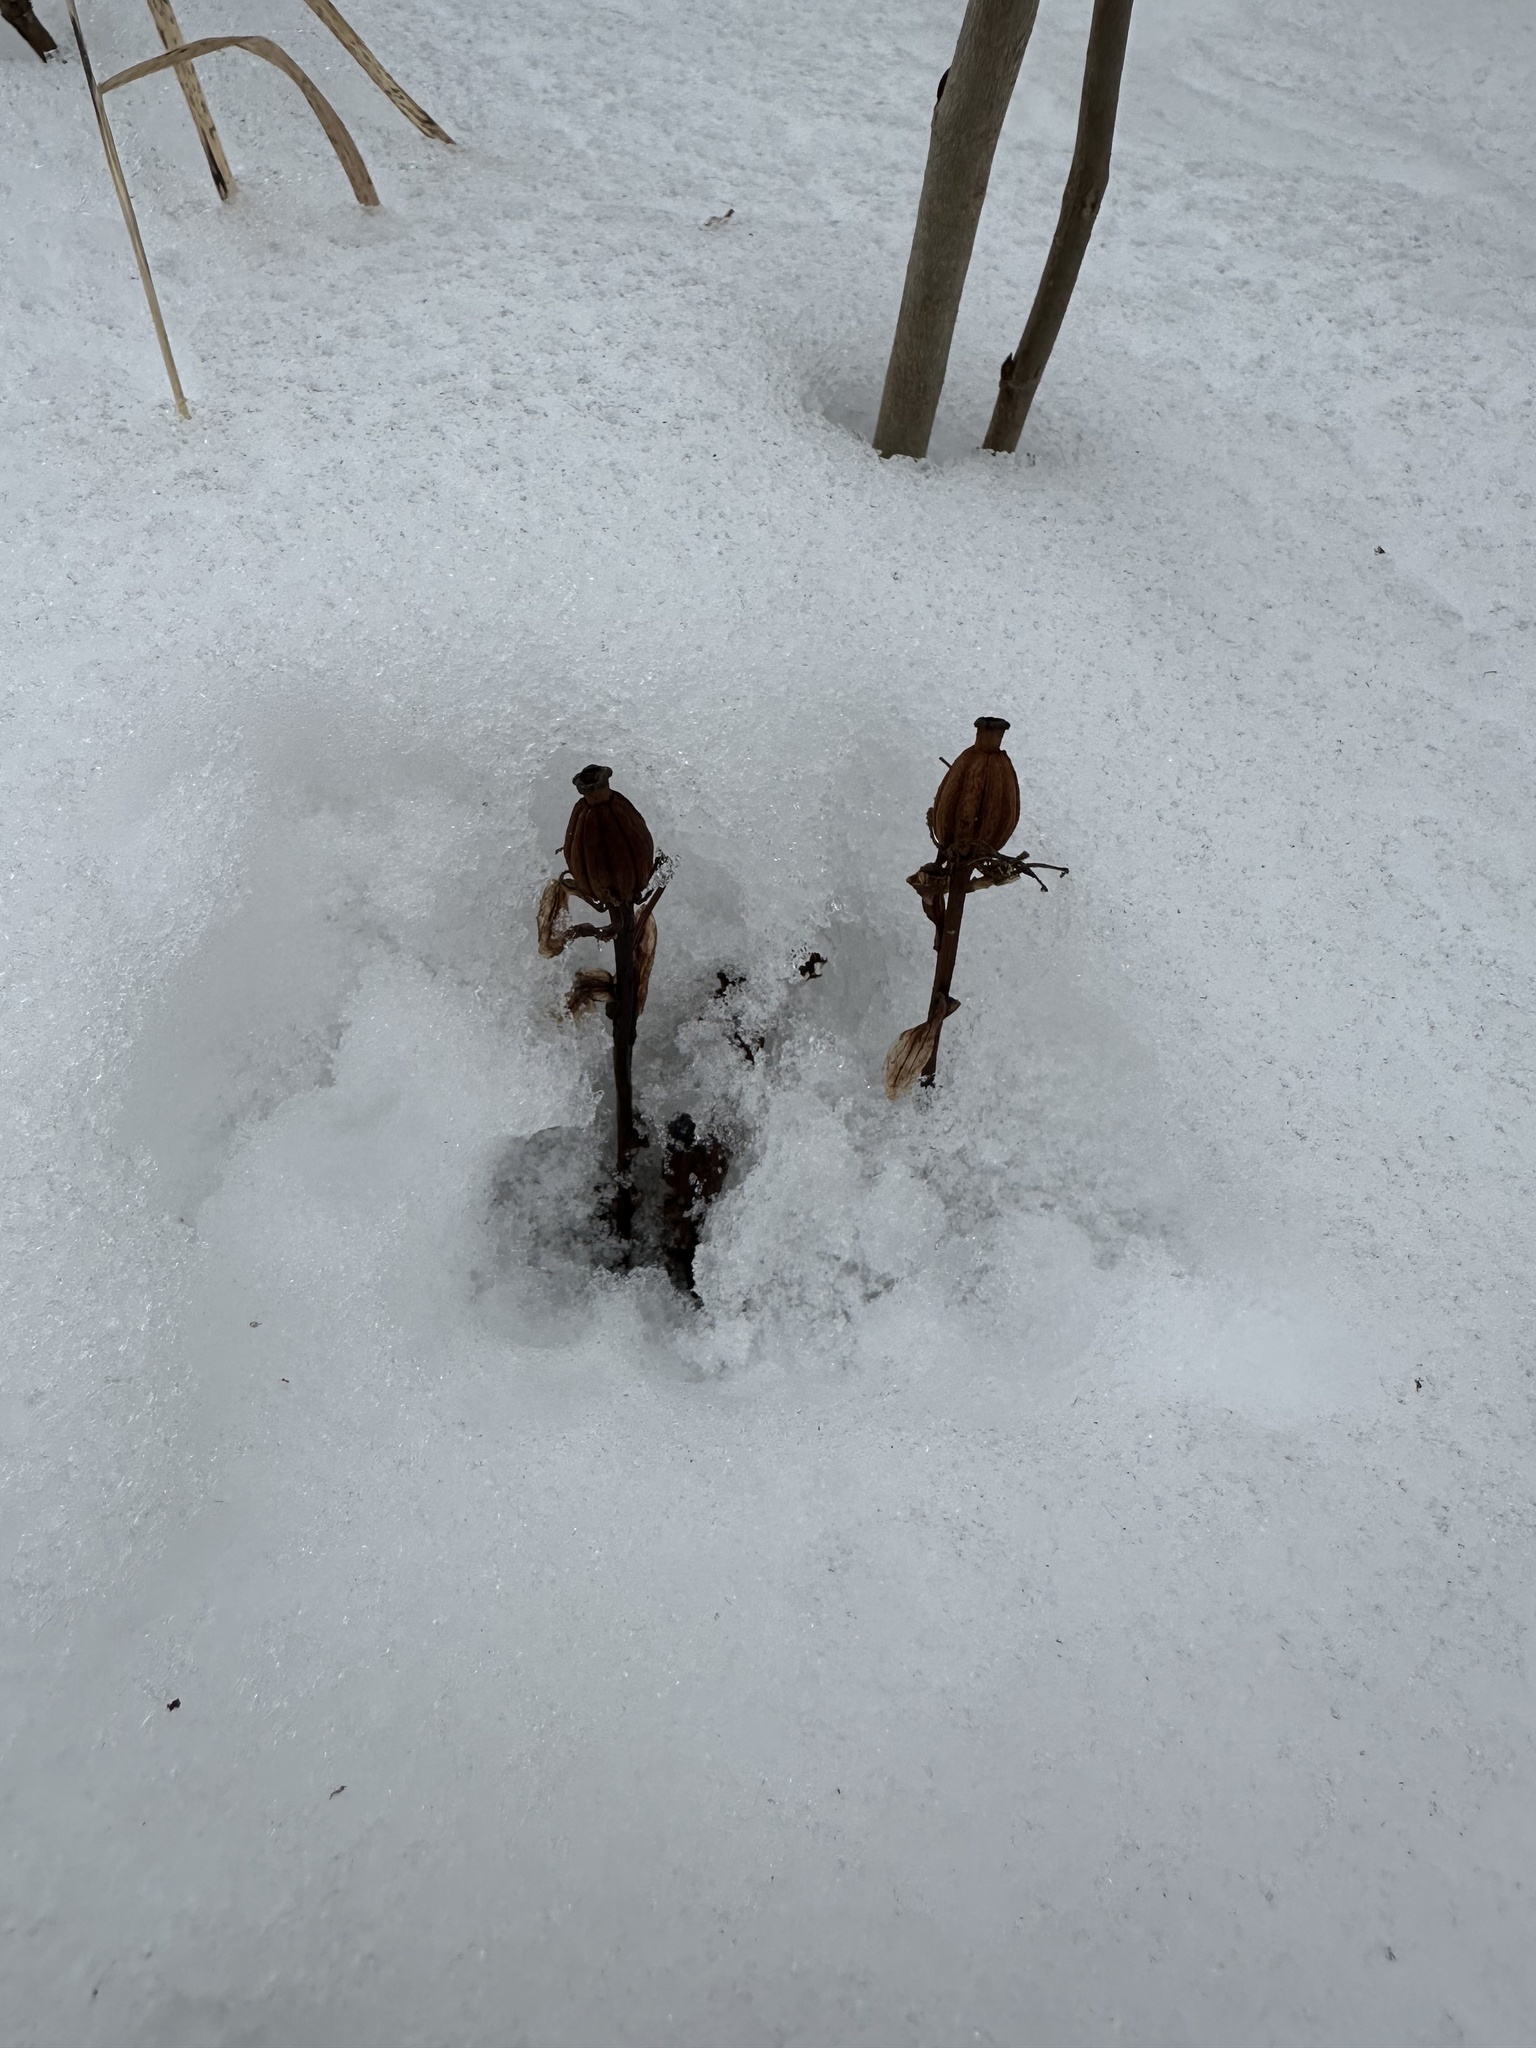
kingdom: Plantae
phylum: Tracheophyta
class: Magnoliopsida
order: Ericales
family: Ericaceae
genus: Monotropa
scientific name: Monotropa uniflora
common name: Convulsion root
